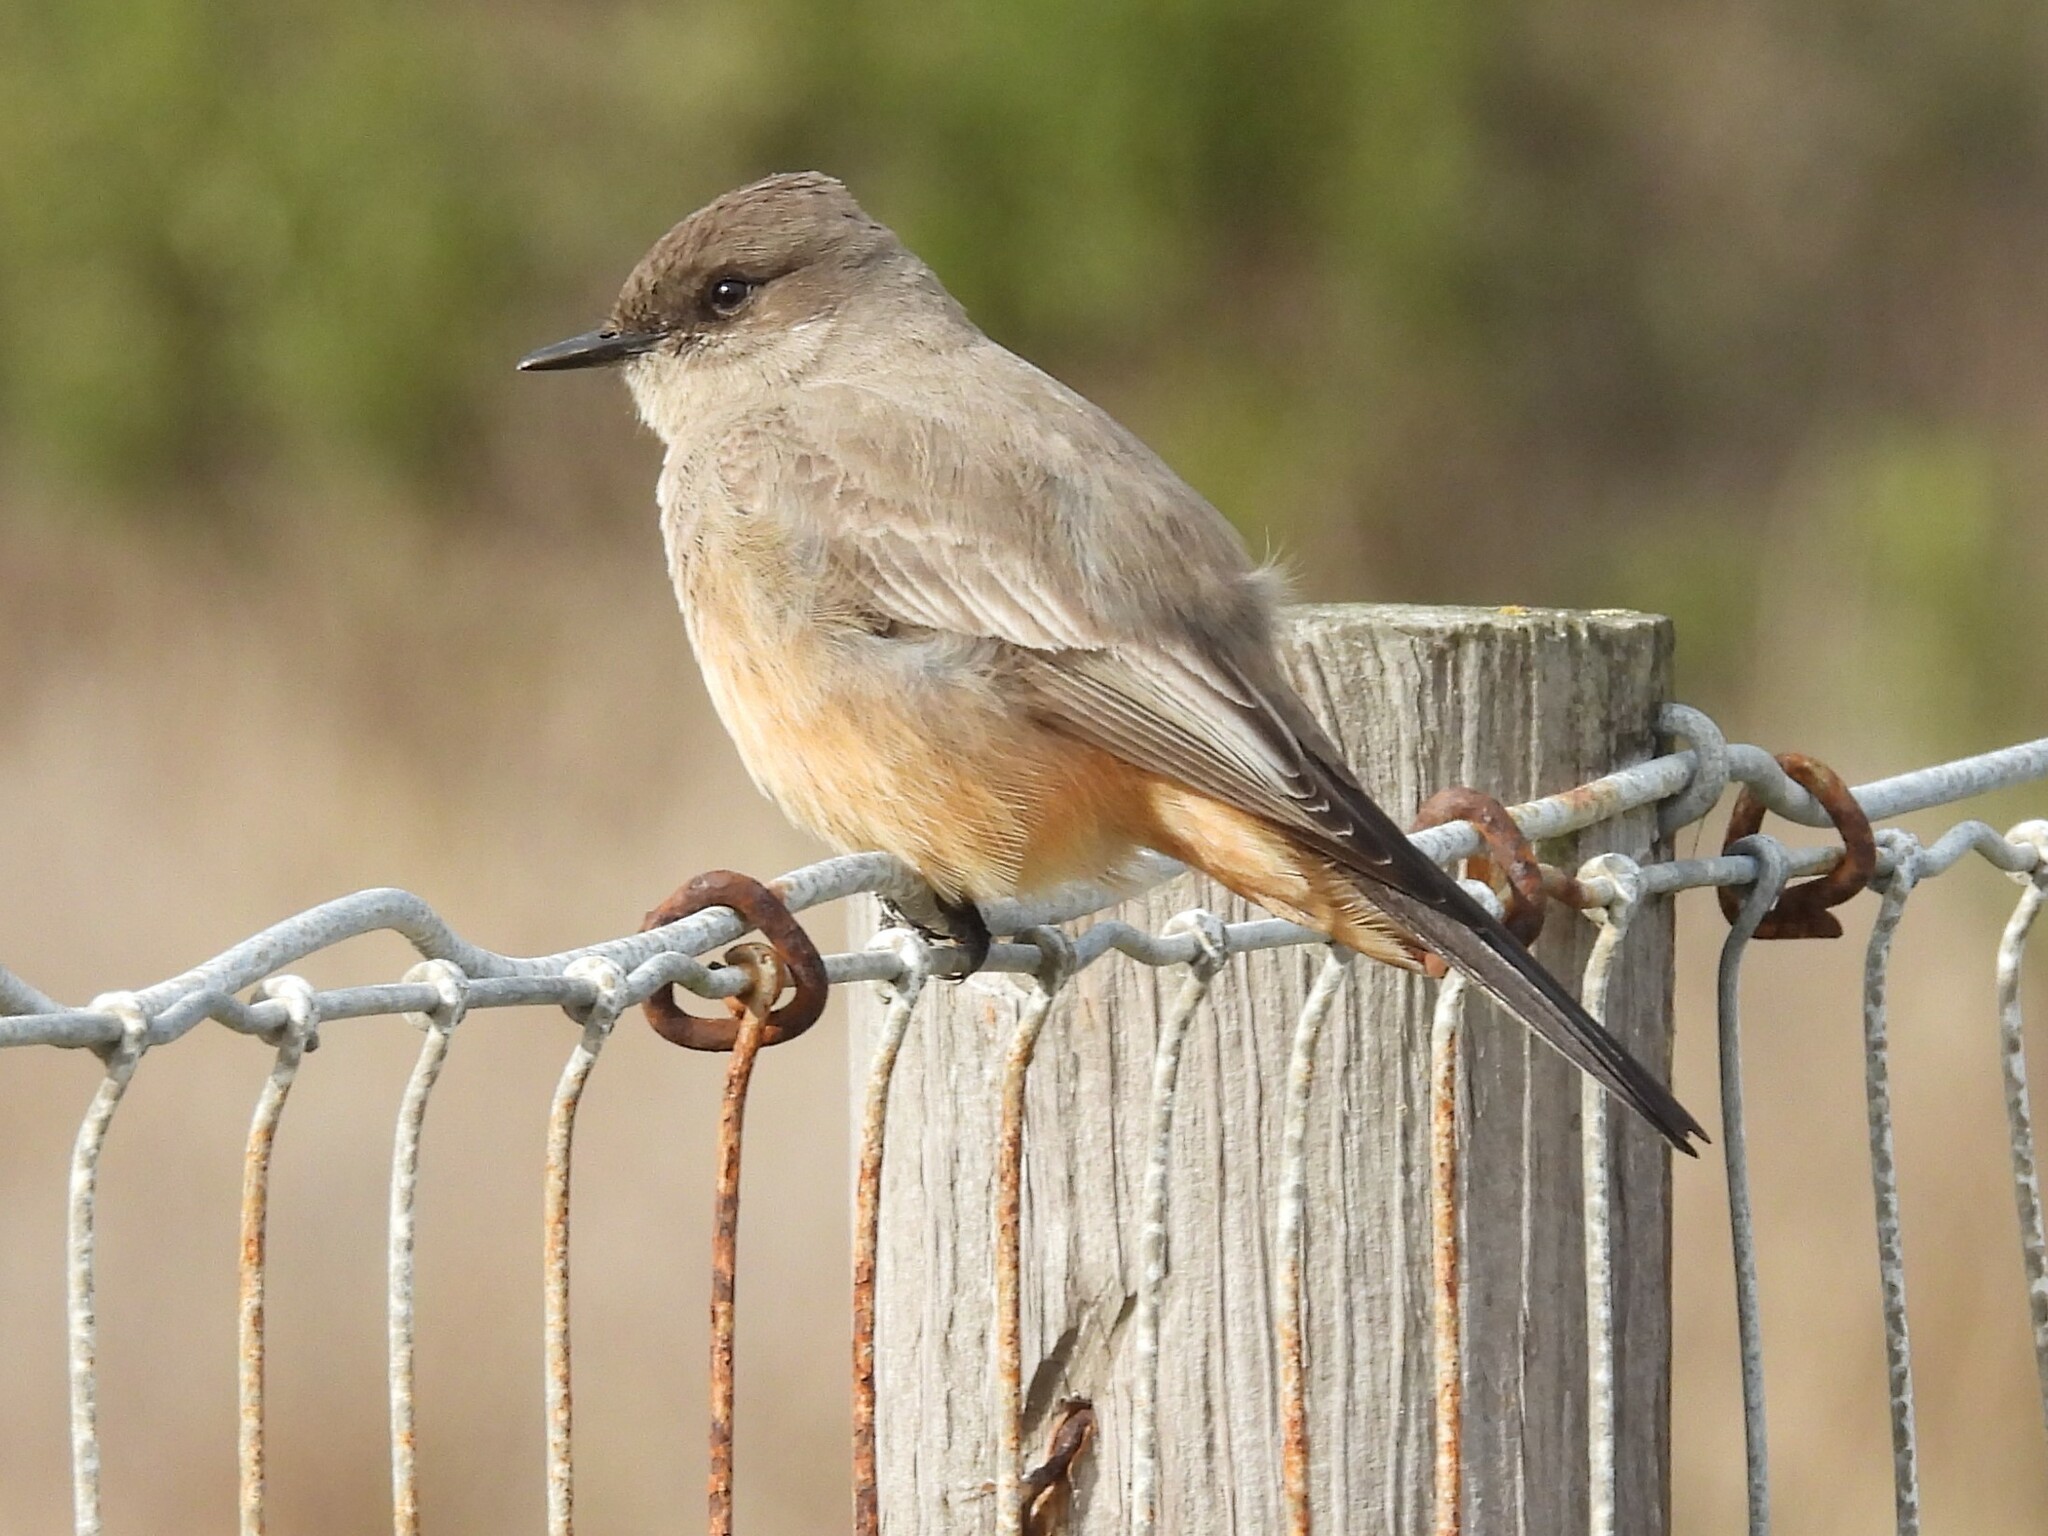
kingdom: Animalia
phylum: Chordata
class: Aves
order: Passeriformes
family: Tyrannidae
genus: Sayornis
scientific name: Sayornis saya
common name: Say's phoebe
